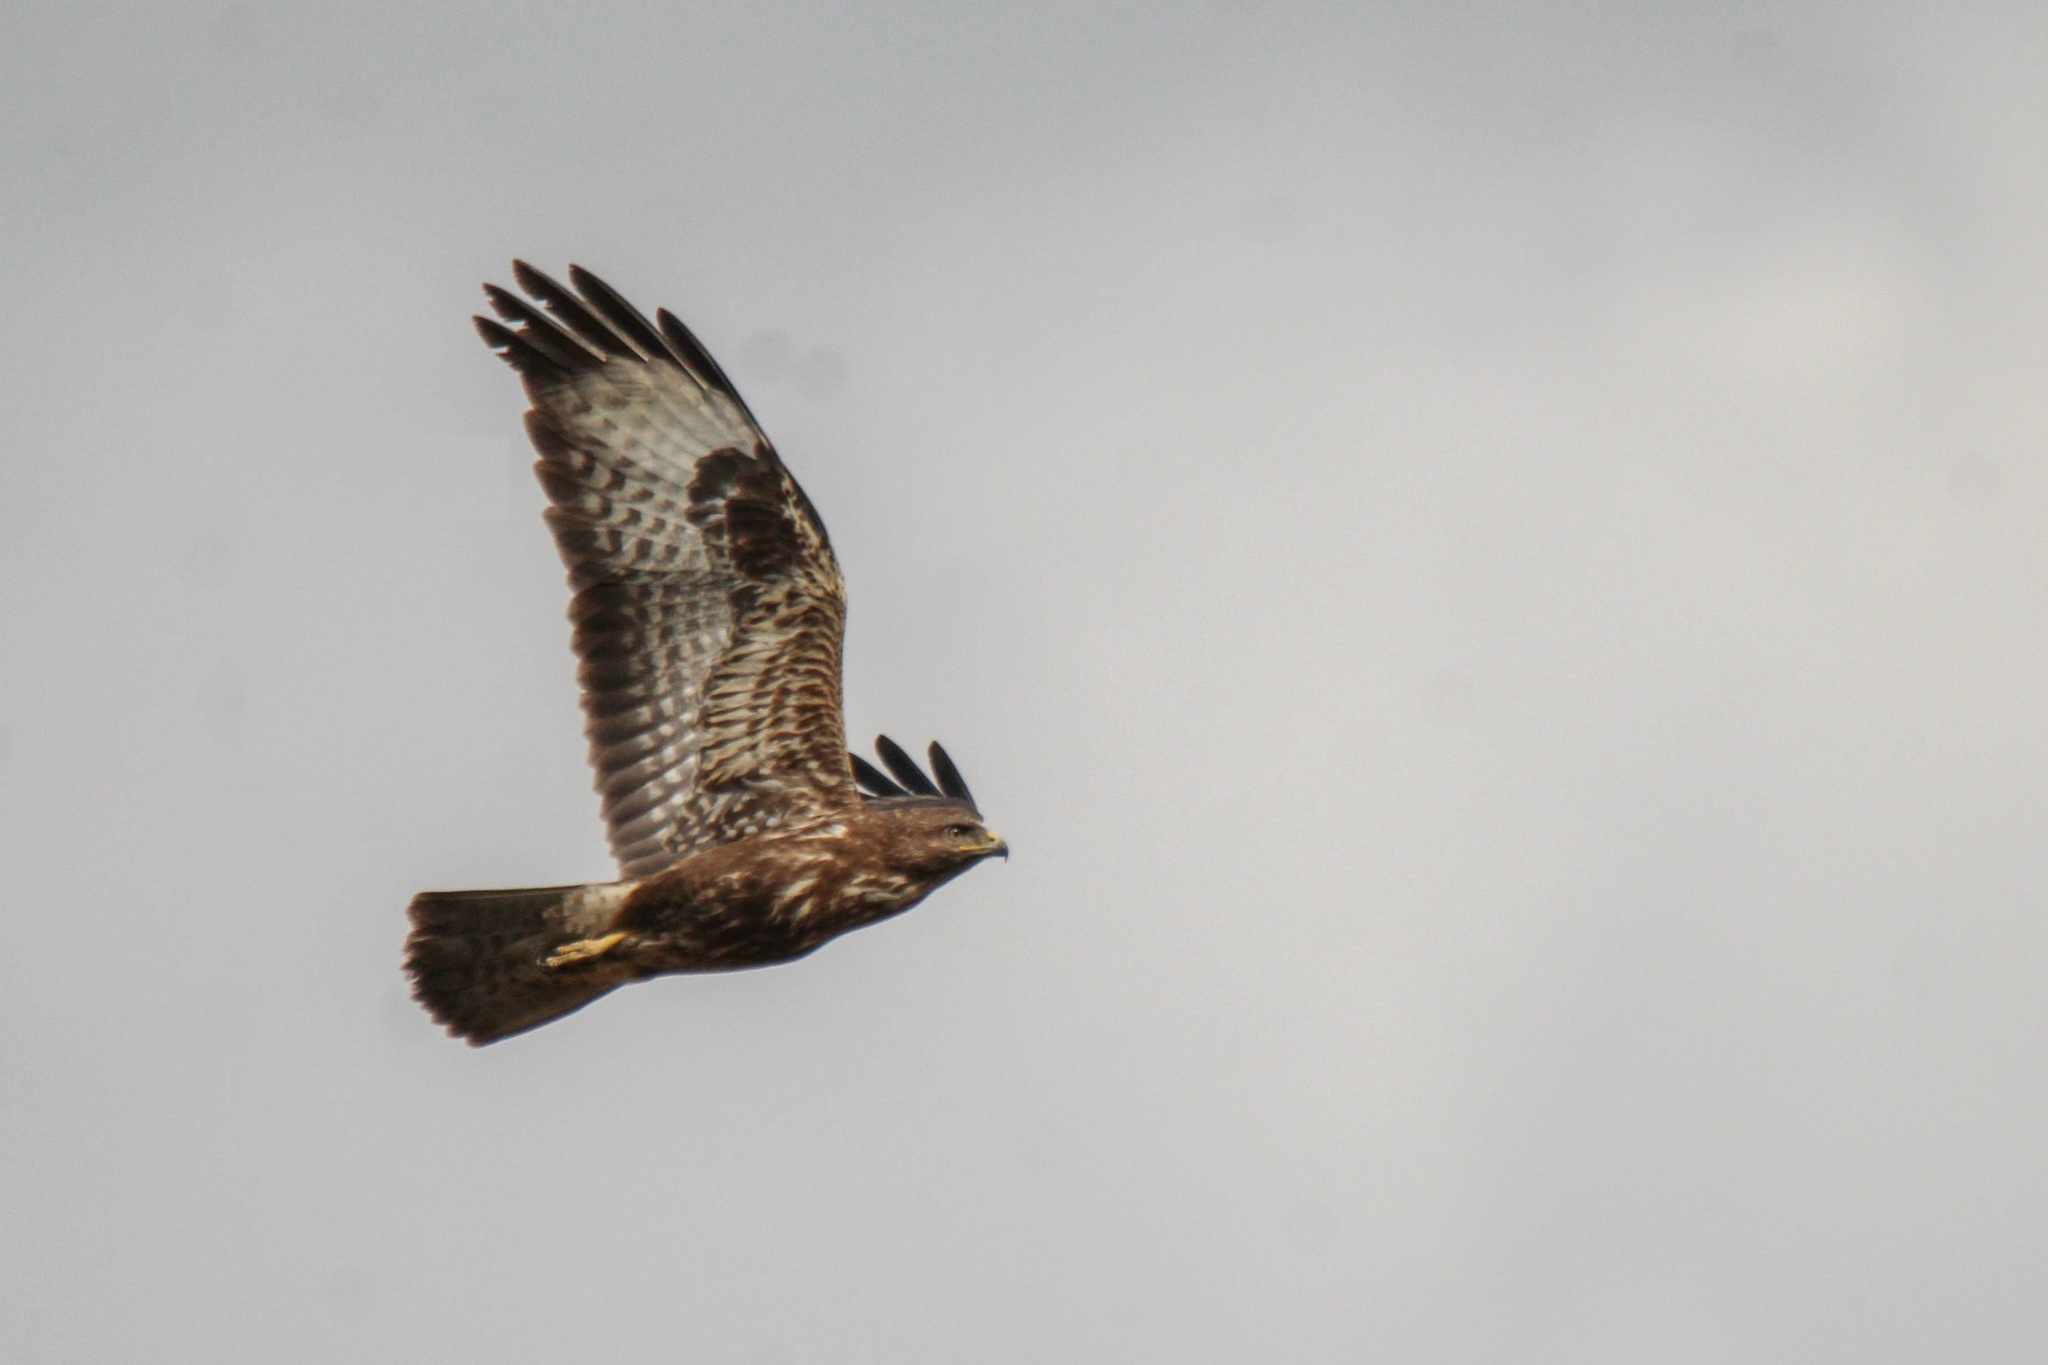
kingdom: Animalia
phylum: Chordata
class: Aves
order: Accipitriformes
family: Accipitridae
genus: Buteo
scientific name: Buteo buteo
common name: Common buzzard
